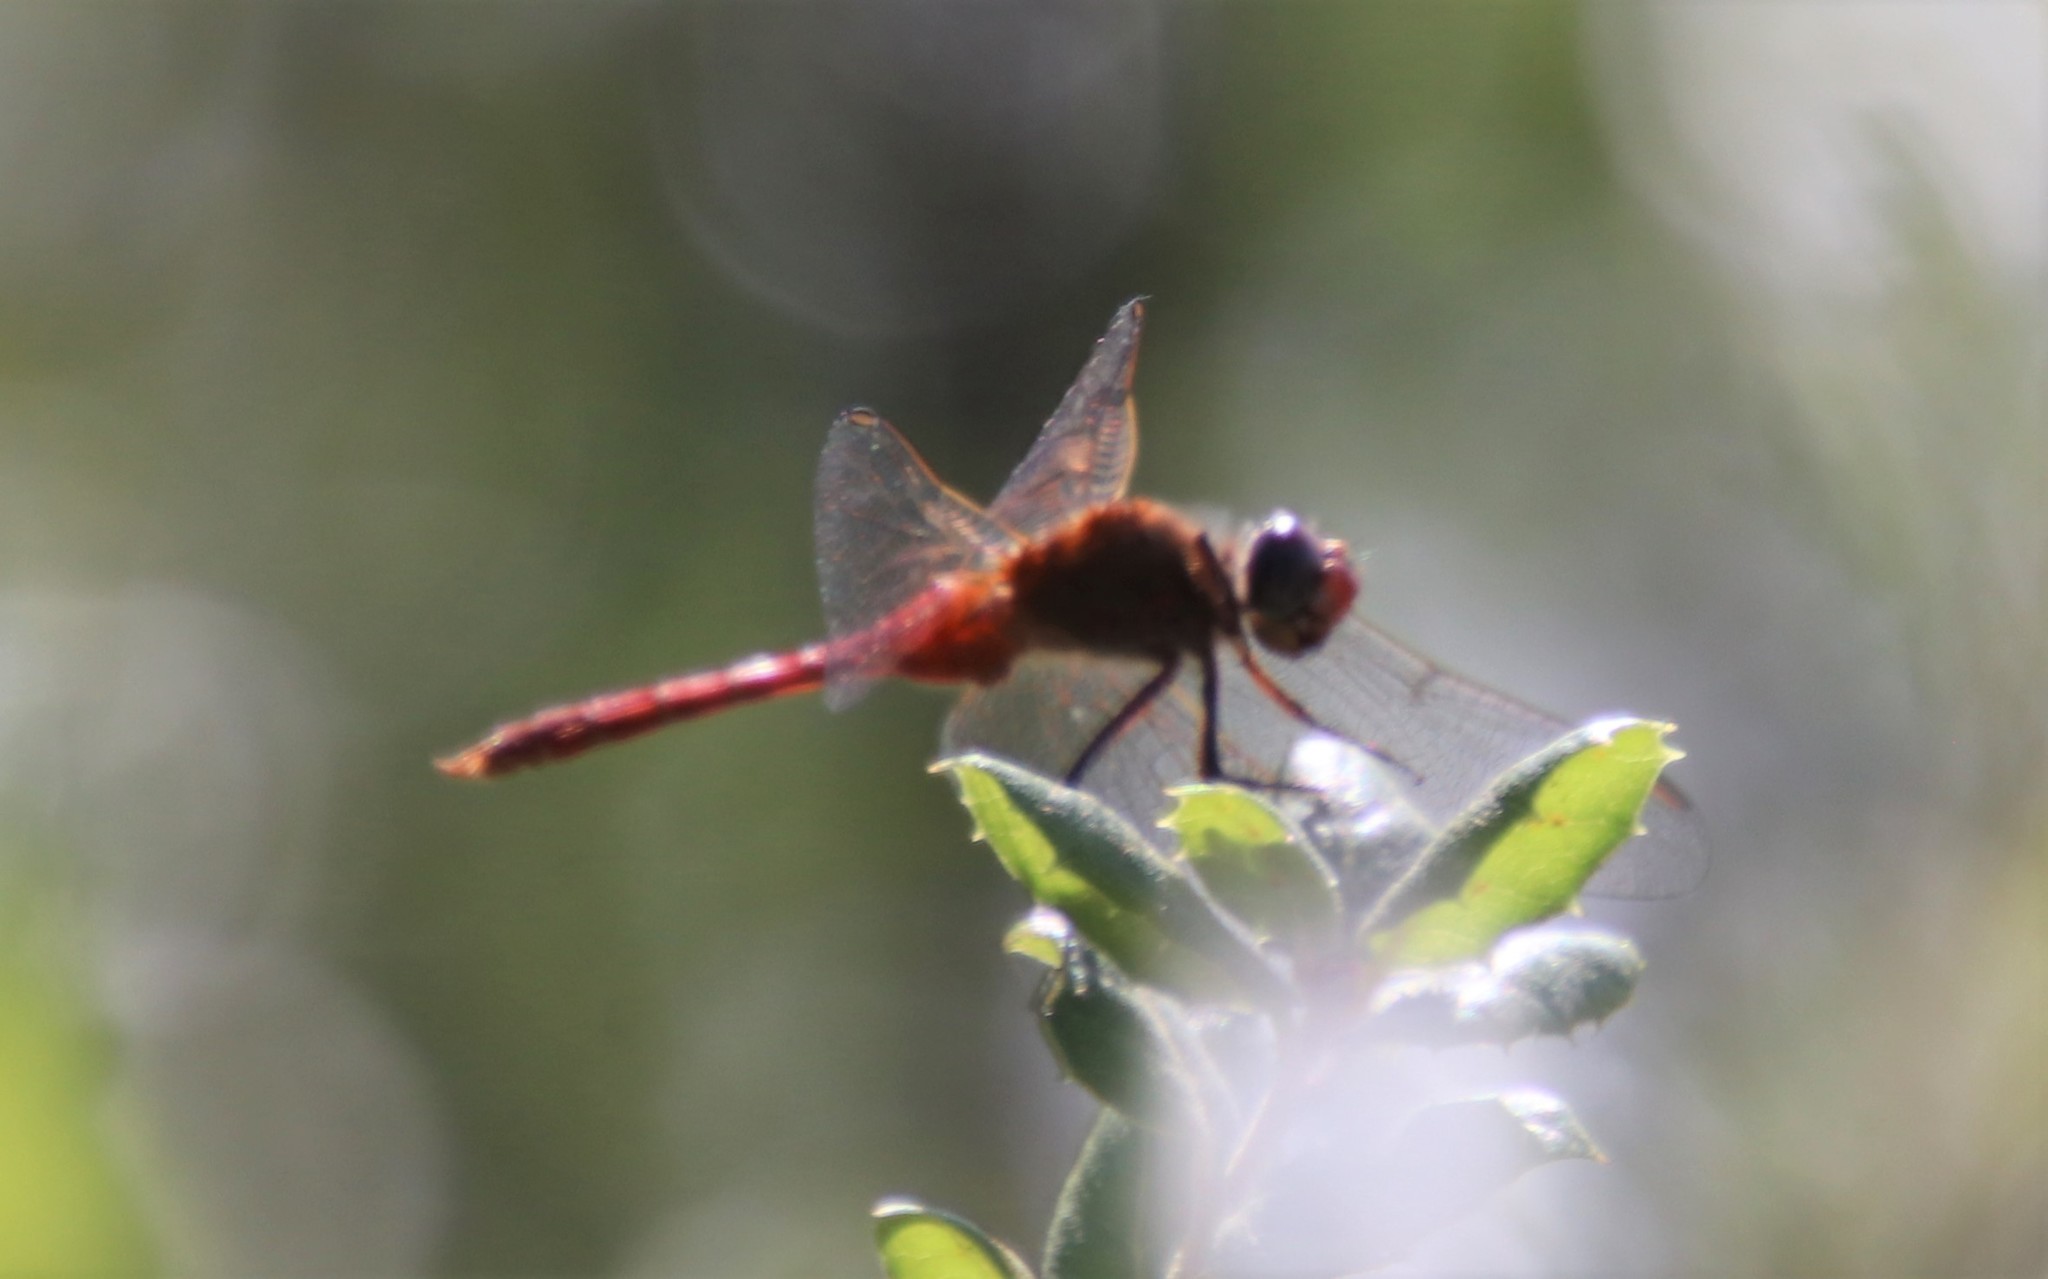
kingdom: Animalia
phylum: Arthropoda
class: Insecta
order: Odonata
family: Libellulidae
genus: Brachymesia
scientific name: Brachymesia furcata
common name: Red-taled pennant
